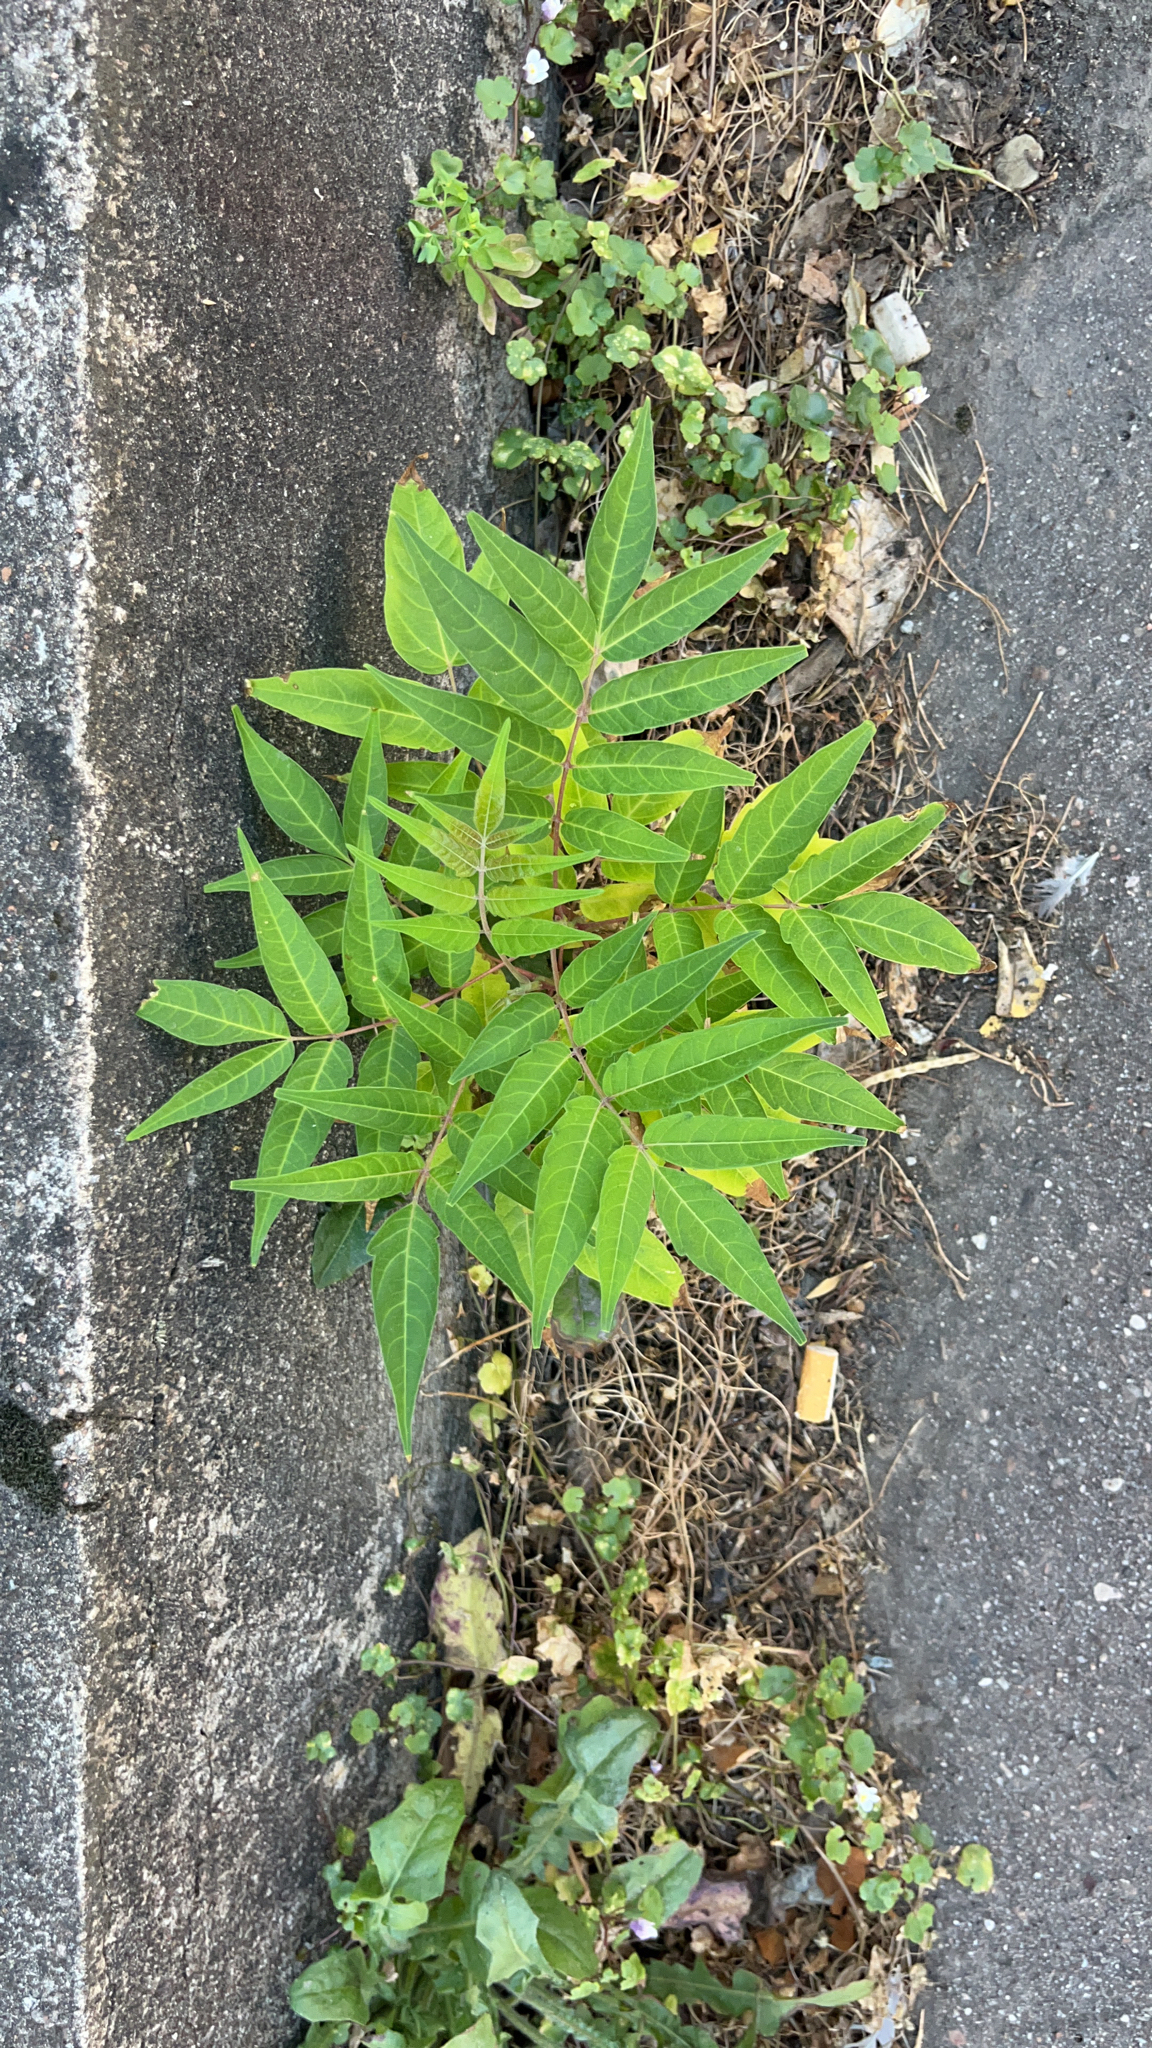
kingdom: Plantae
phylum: Tracheophyta
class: Magnoliopsida
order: Sapindales
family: Simaroubaceae
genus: Ailanthus
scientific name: Ailanthus altissima
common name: Tree-of-heaven
